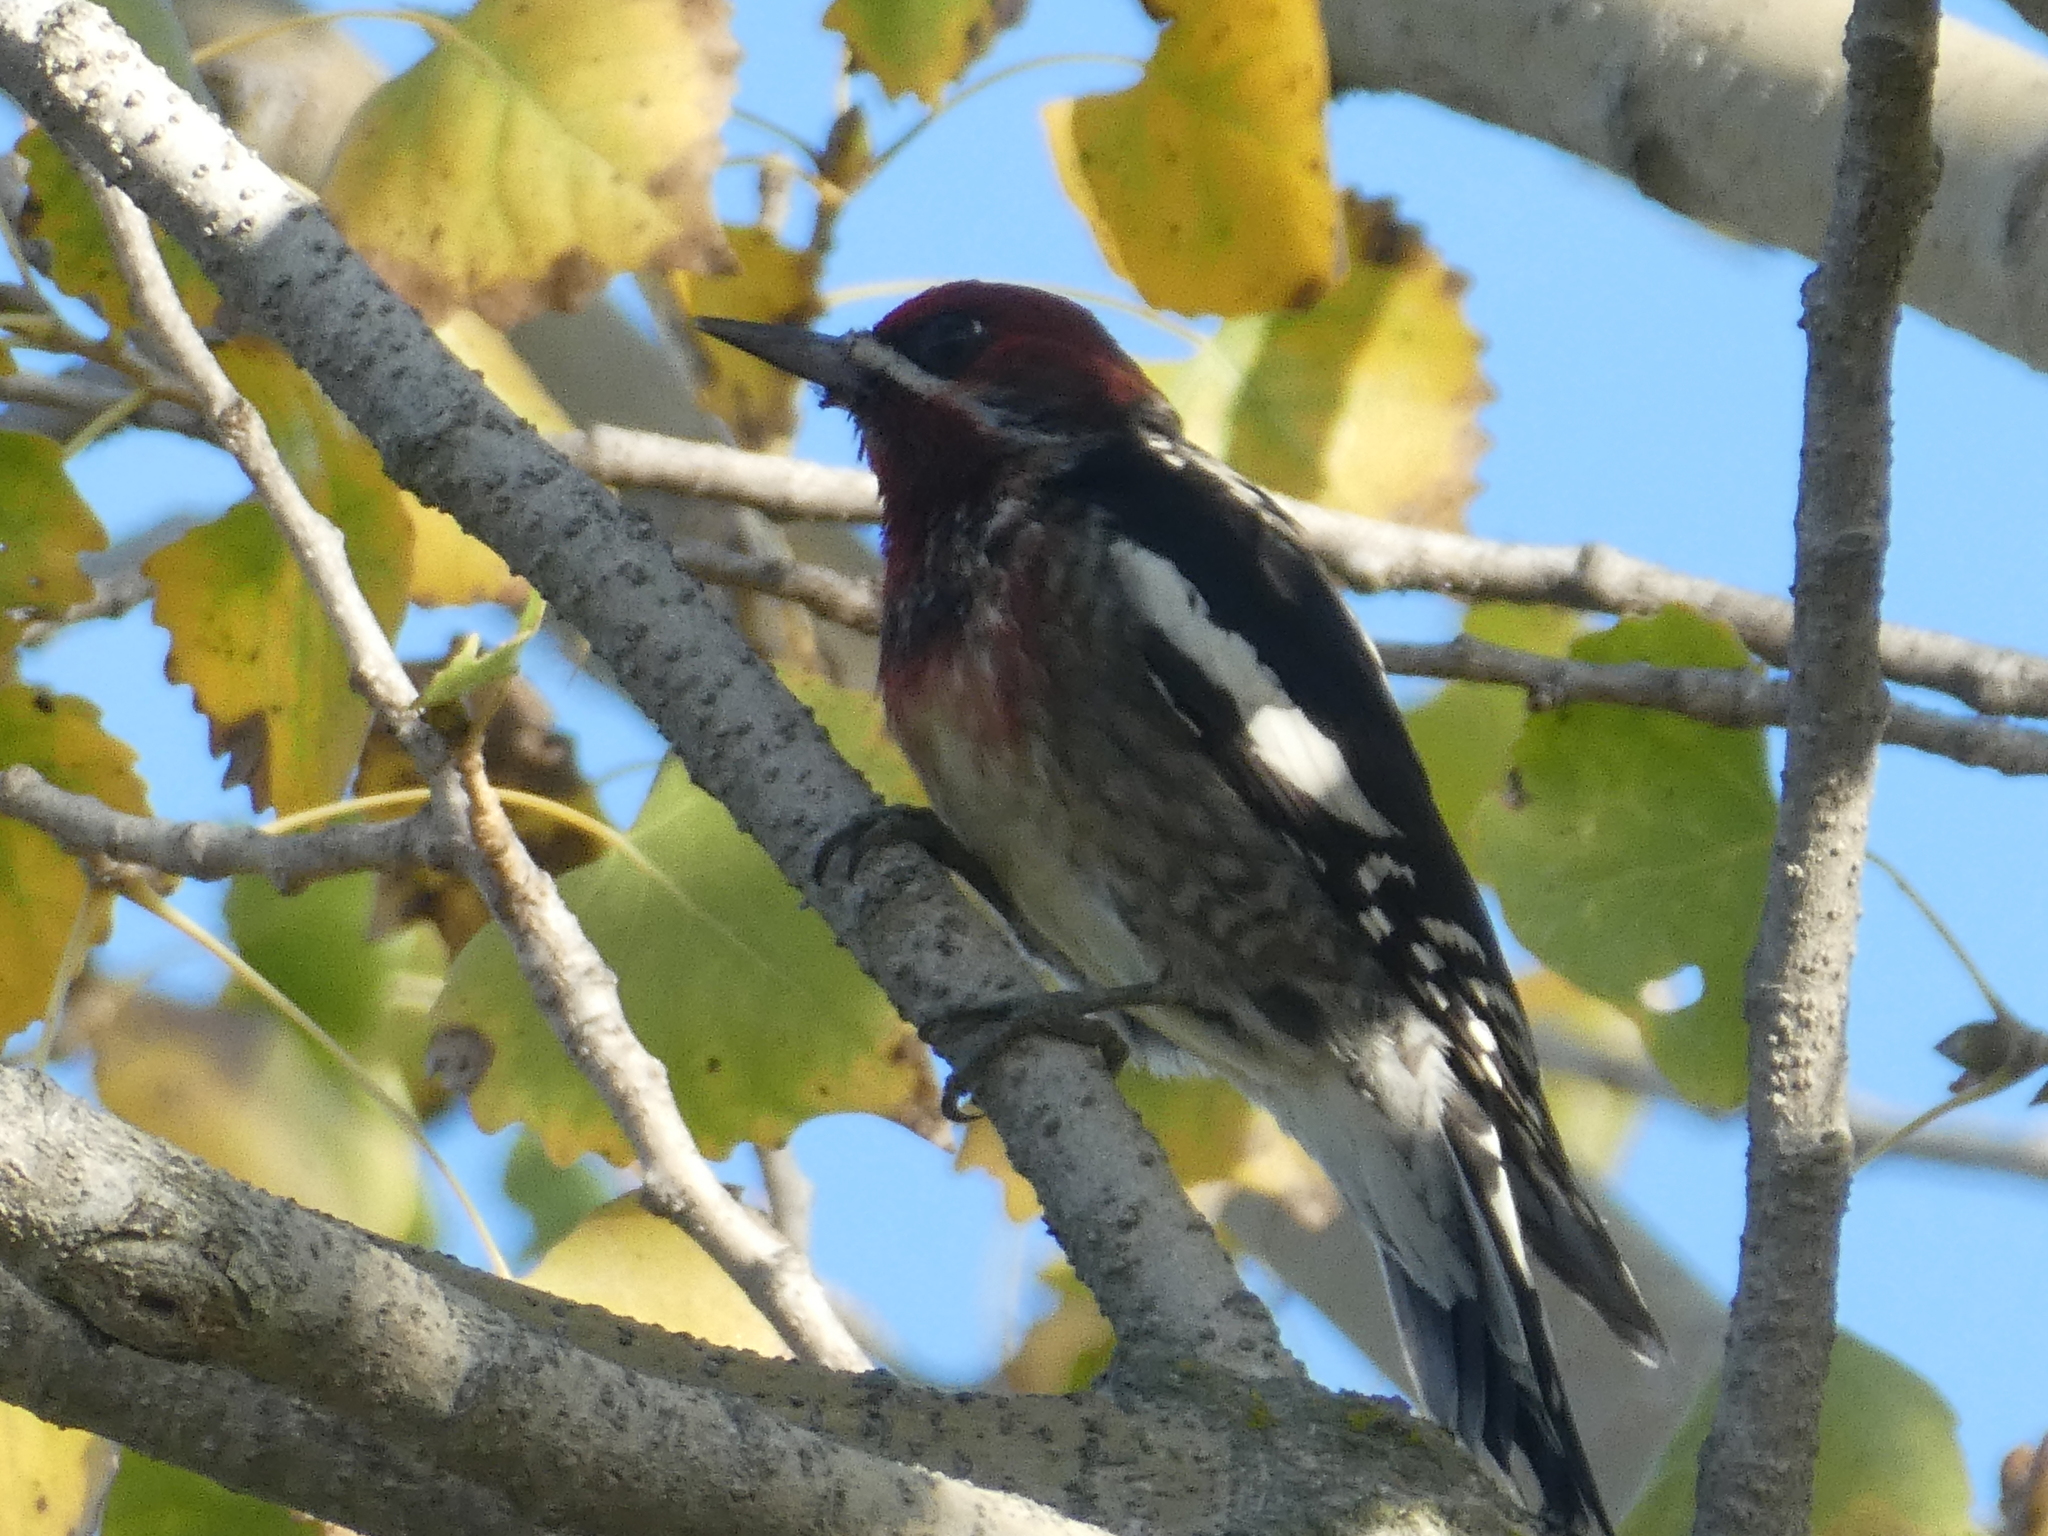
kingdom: Animalia
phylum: Chordata
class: Aves
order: Piciformes
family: Picidae
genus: Sphyrapicus
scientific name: Sphyrapicus
